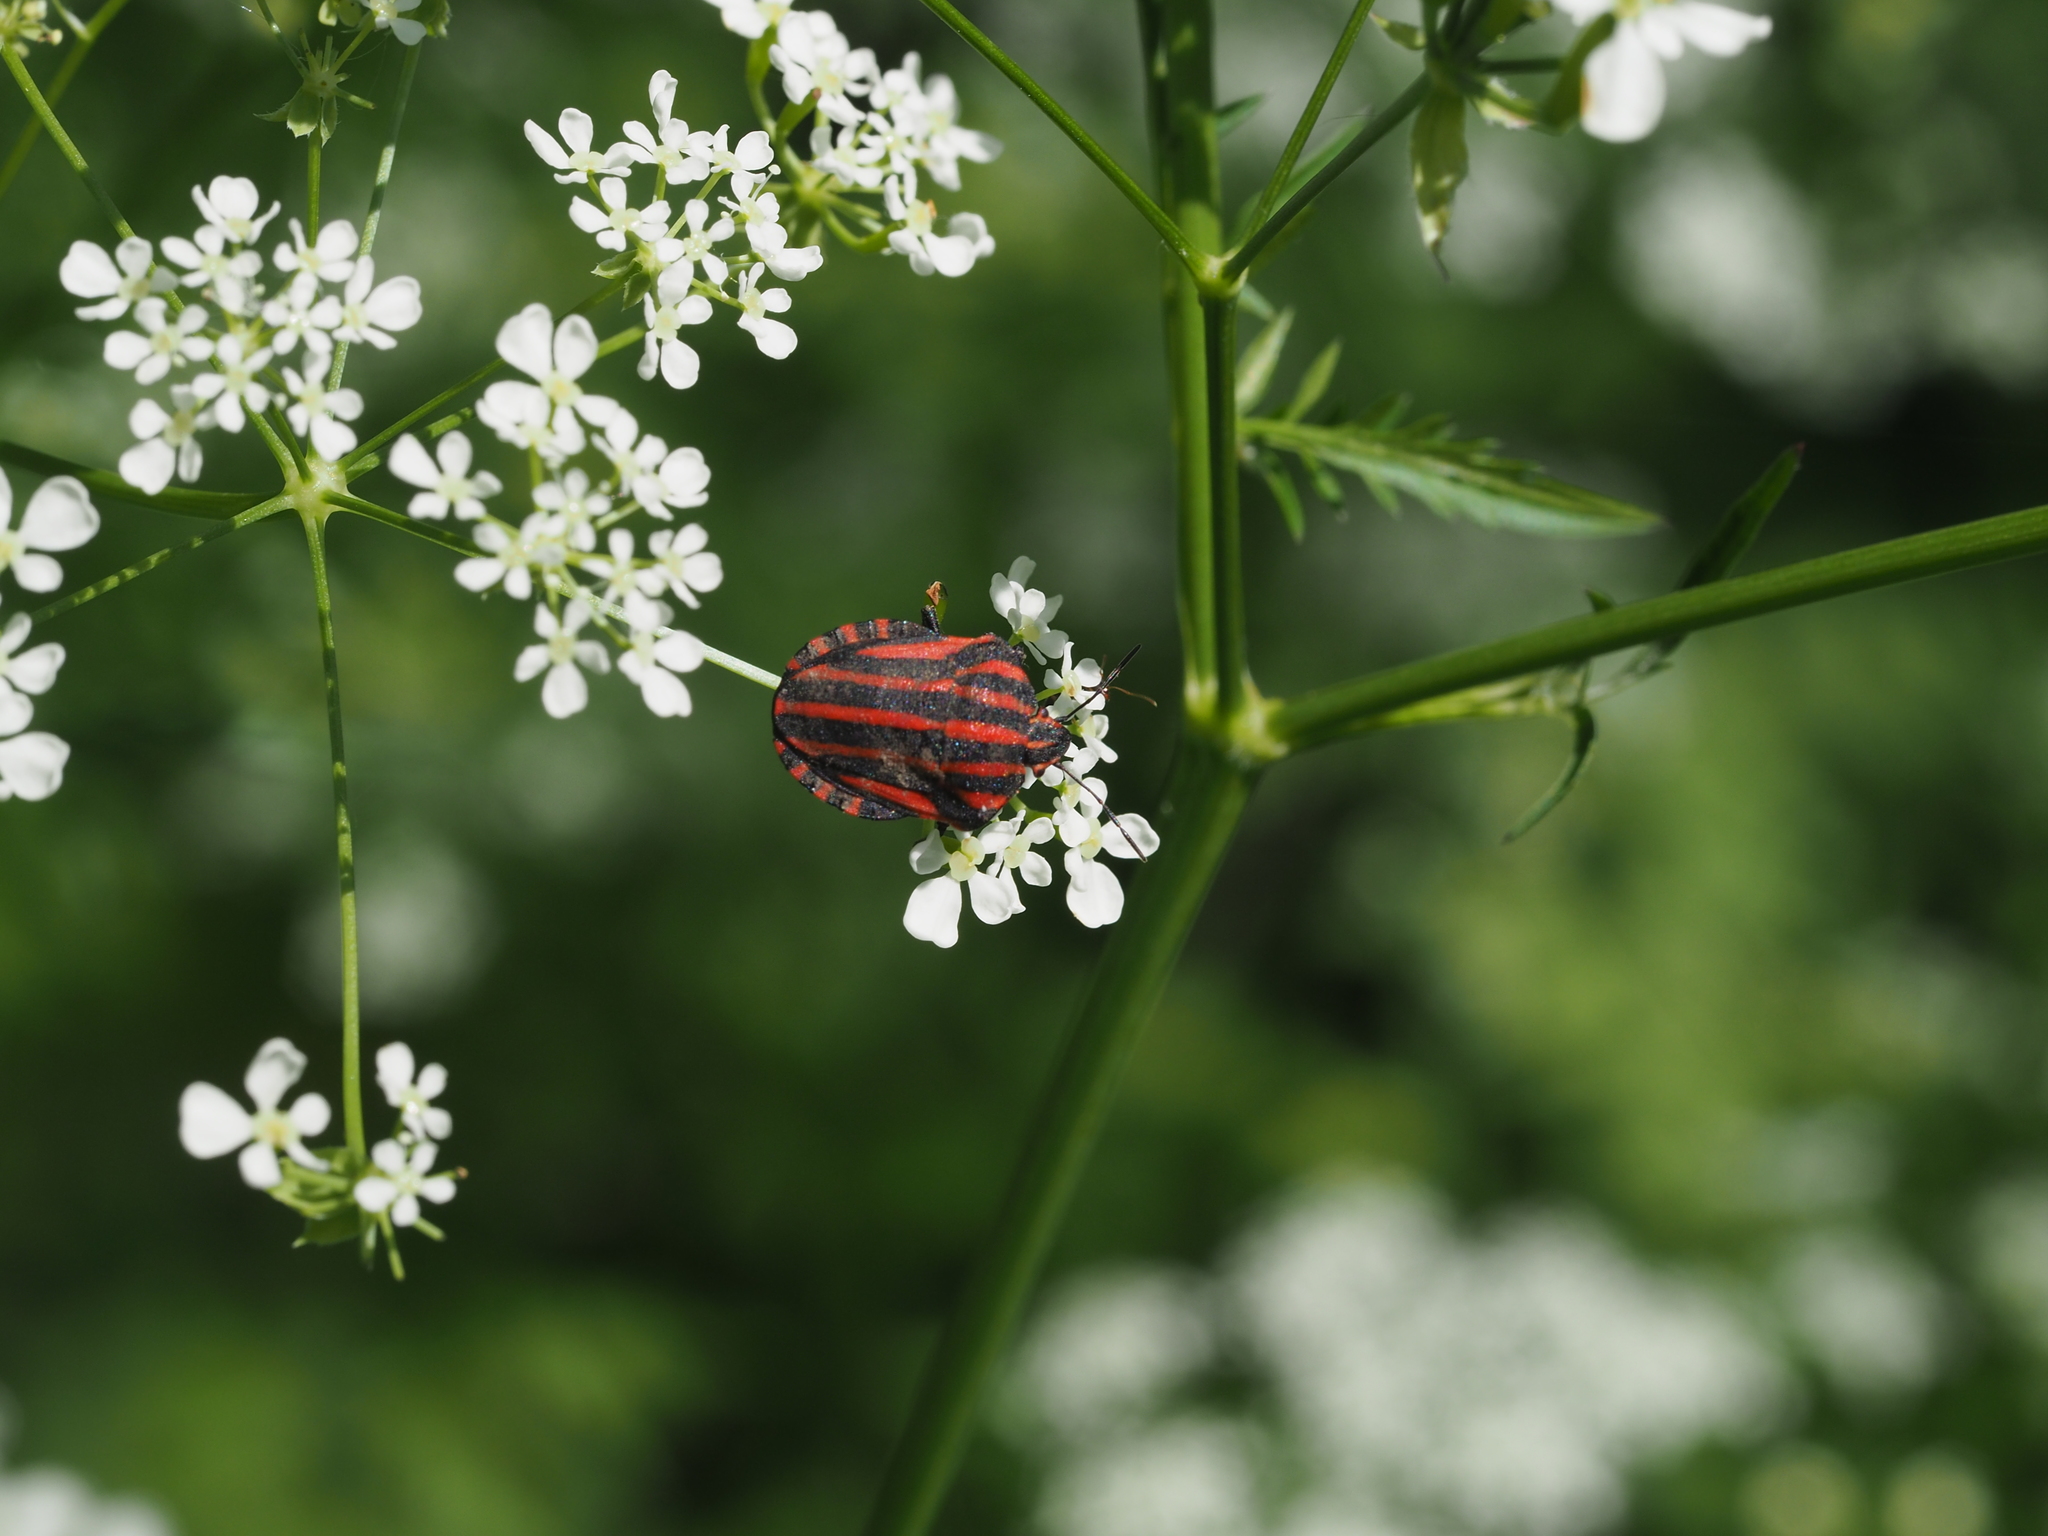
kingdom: Animalia
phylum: Arthropoda
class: Insecta
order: Hemiptera
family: Pentatomidae
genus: Graphosoma
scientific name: Graphosoma italicum
